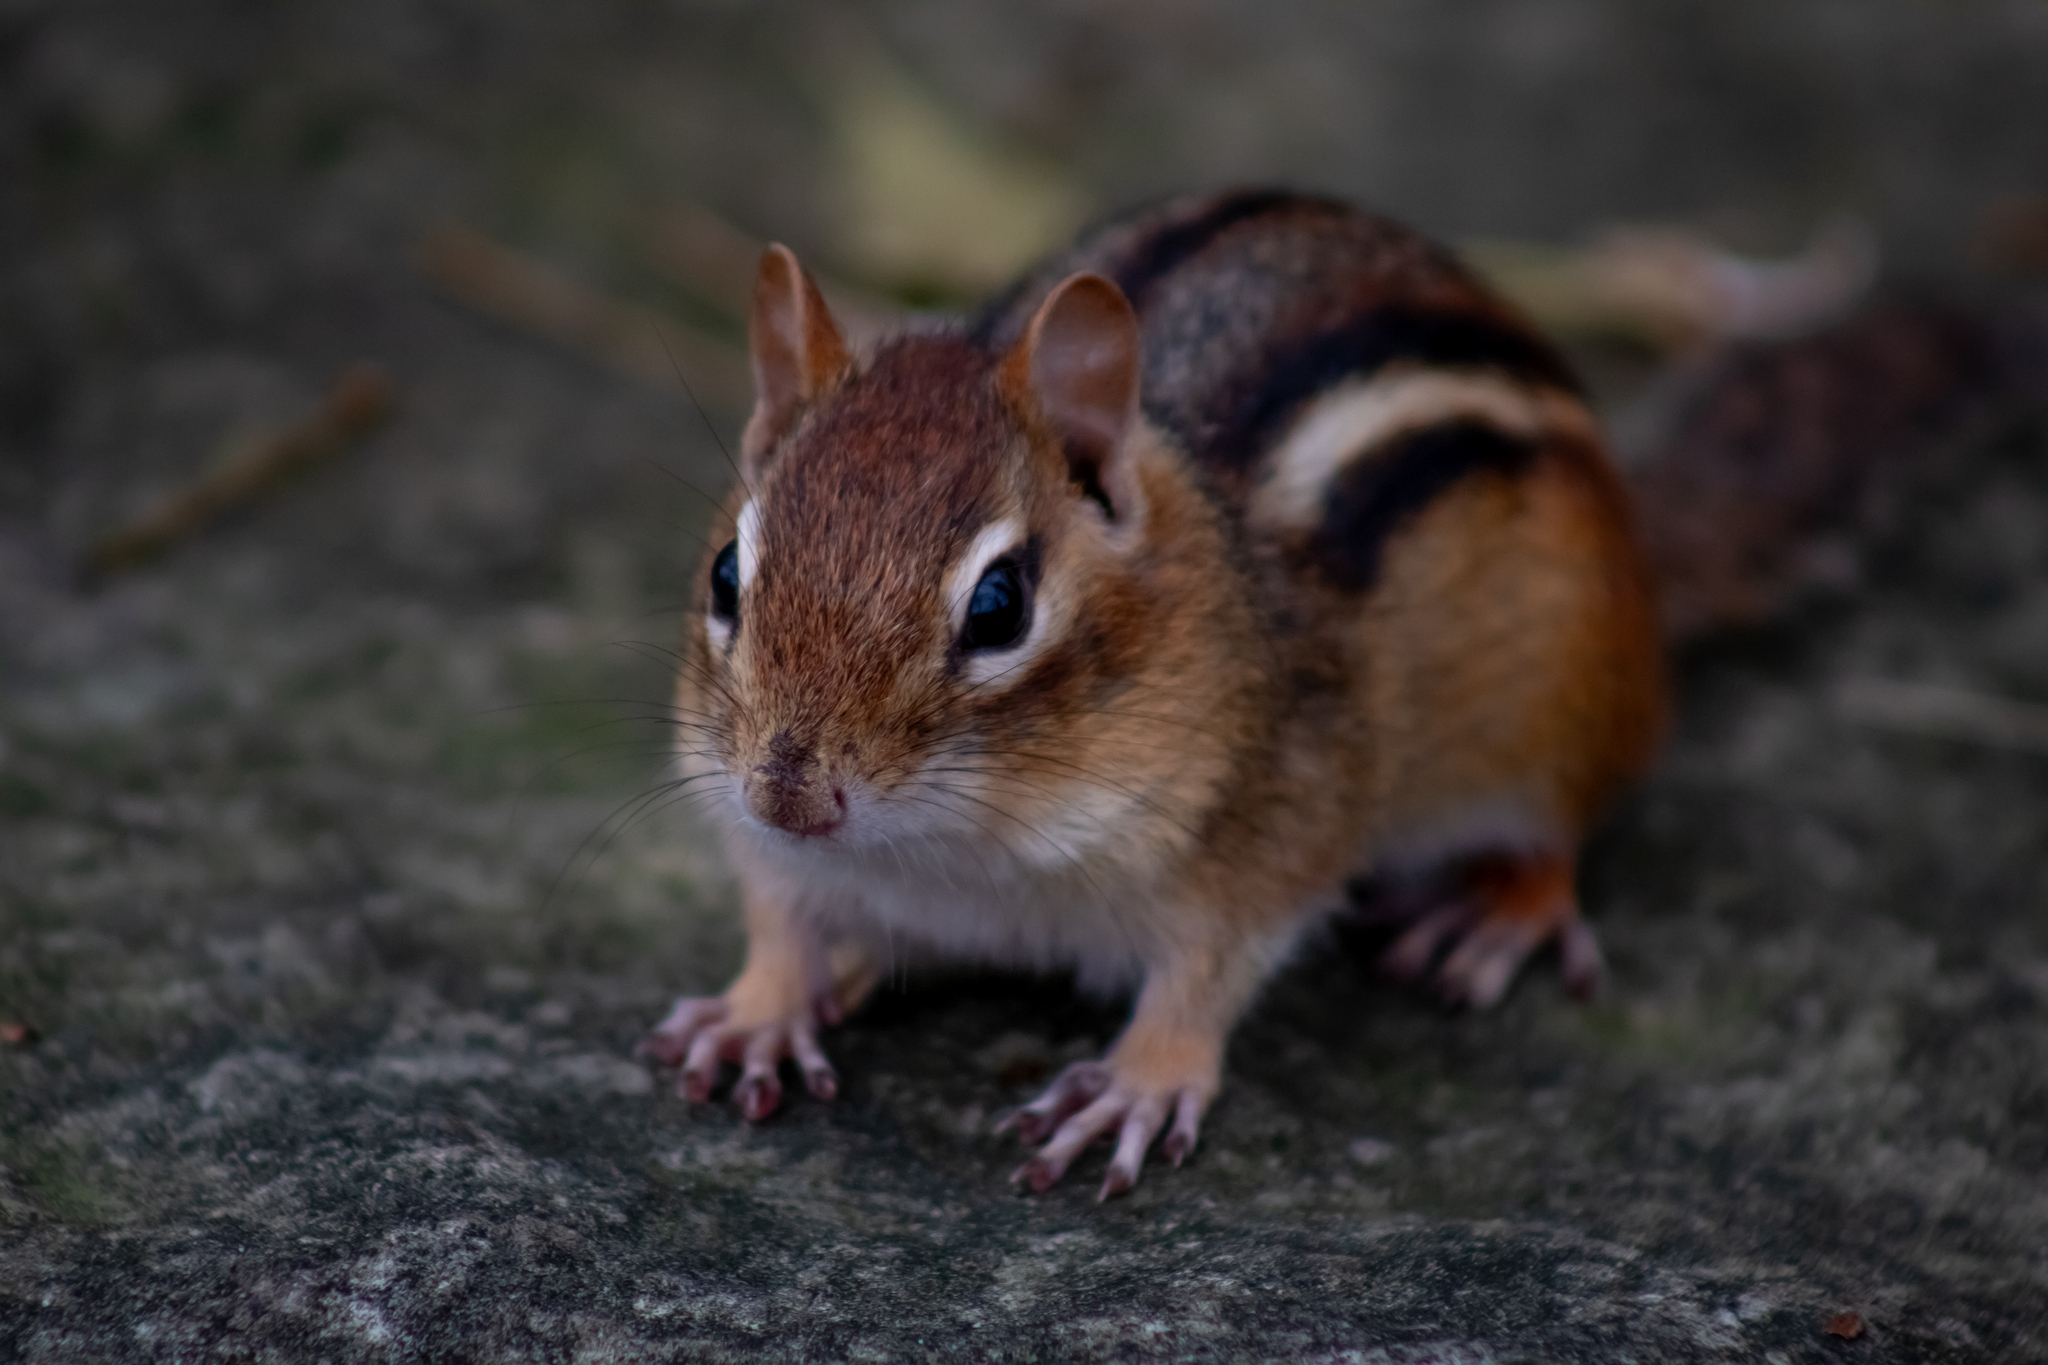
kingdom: Animalia
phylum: Chordata
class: Mammalia
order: Rodentia
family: Sciuridae
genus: Tamias
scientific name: Tamias striatus
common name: Eastern chipmunk
